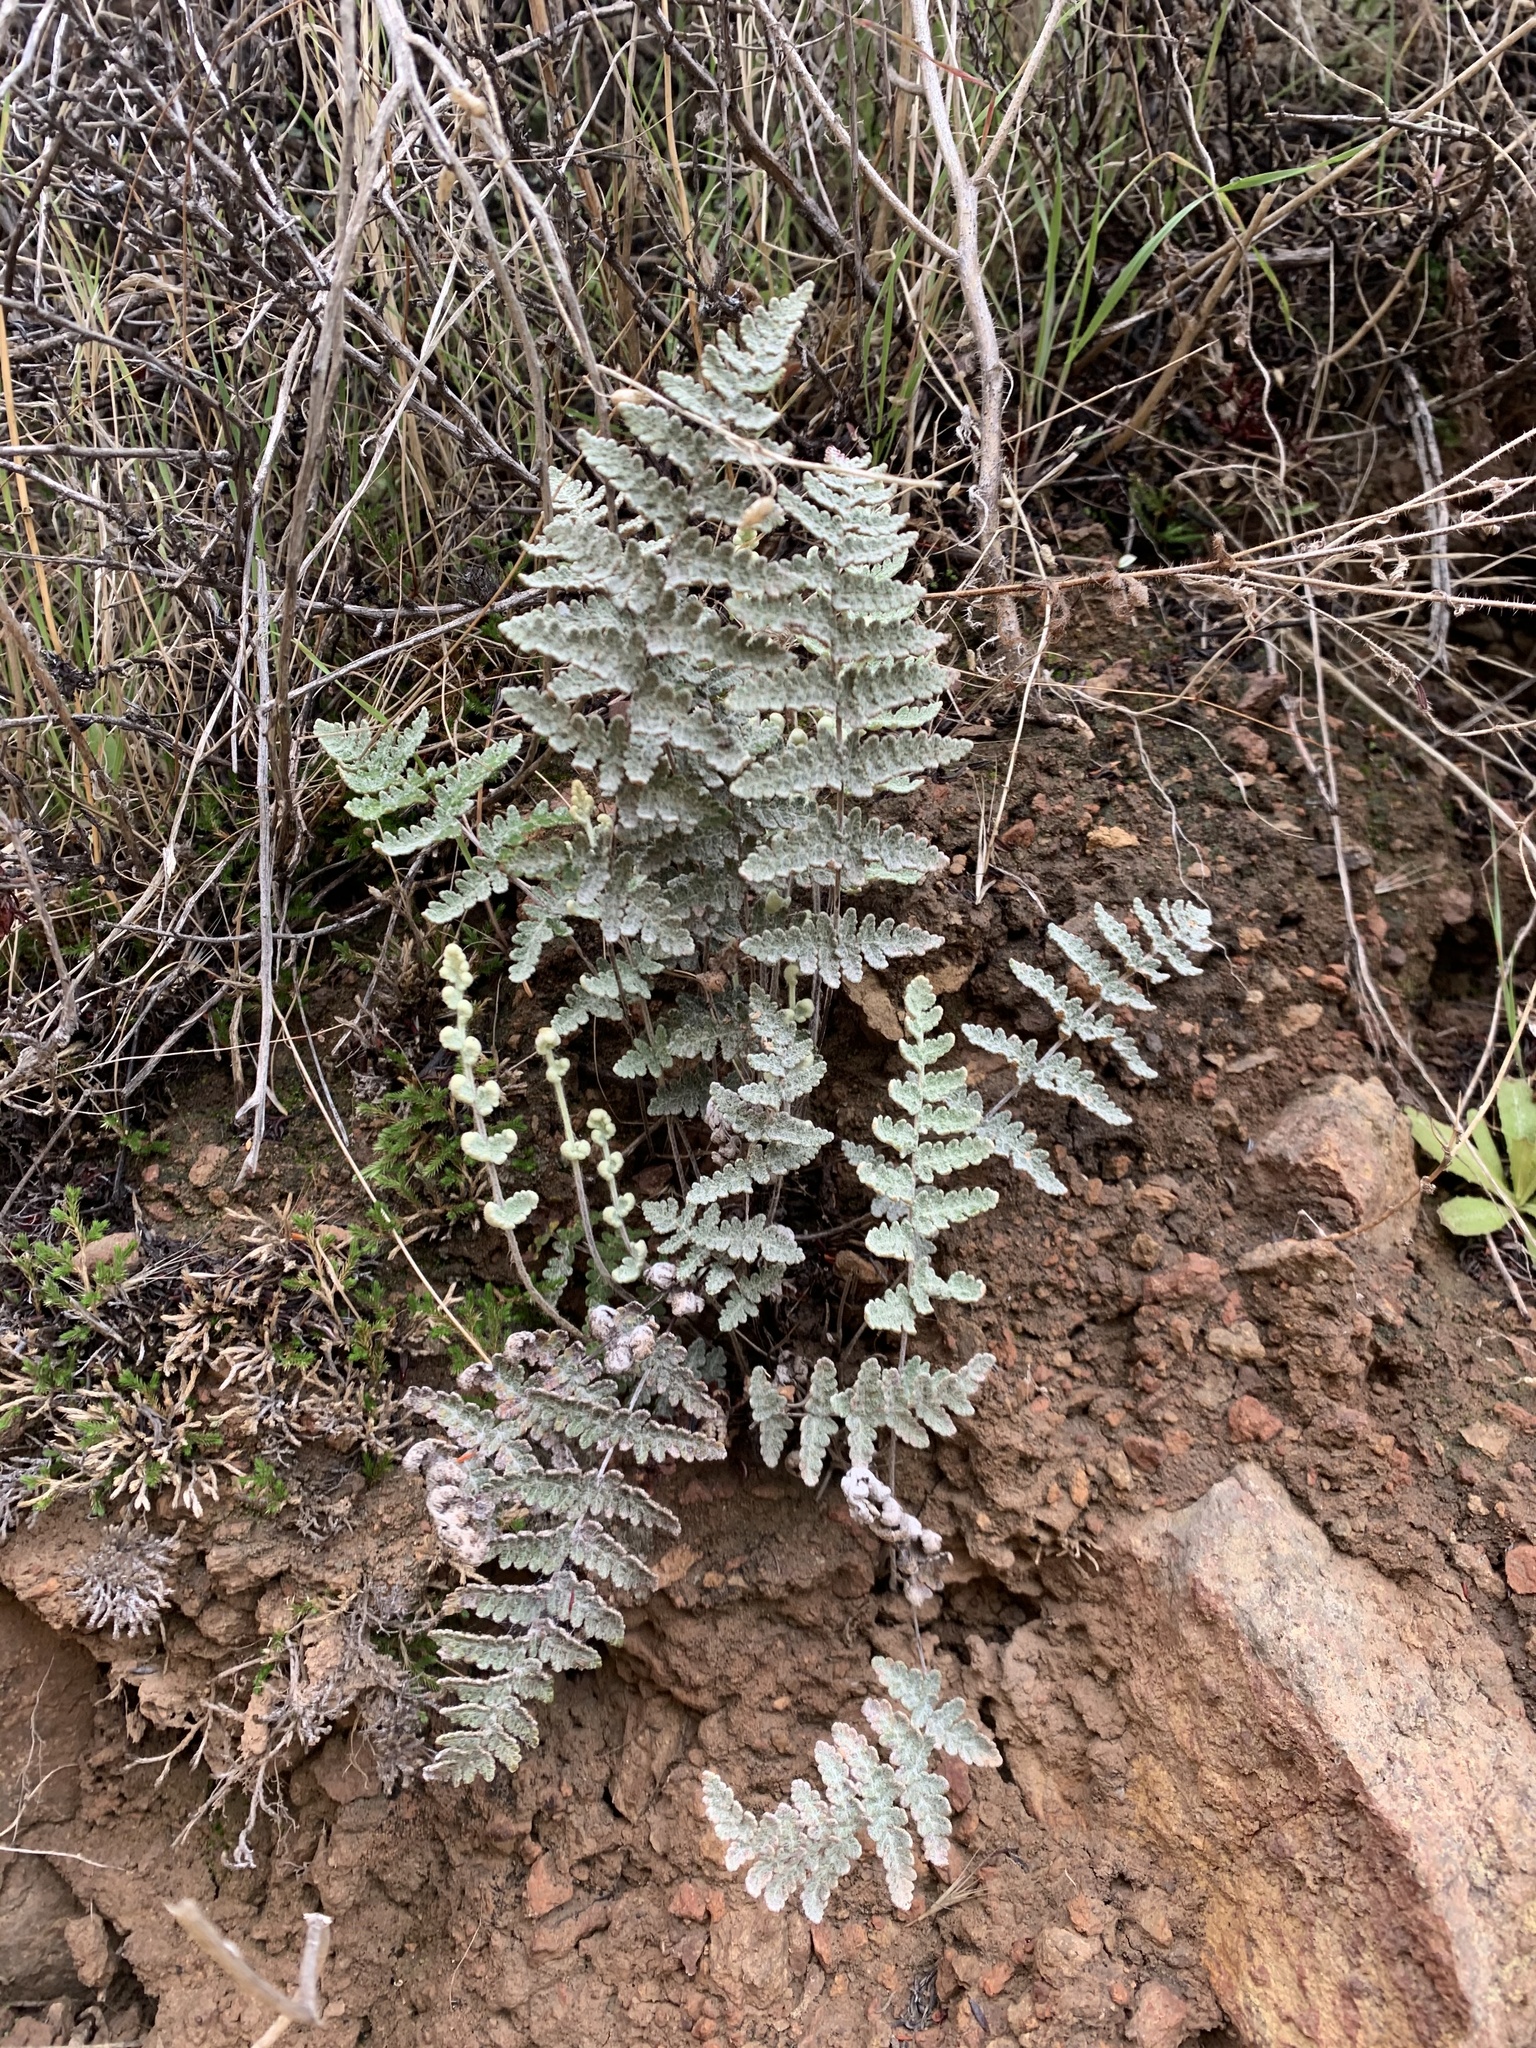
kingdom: Plantae
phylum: Tracheophyta
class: Polypodiopsida
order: Polypodiales
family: Pteridaceae
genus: Myriopteris
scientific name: Myriopteris newberryi
